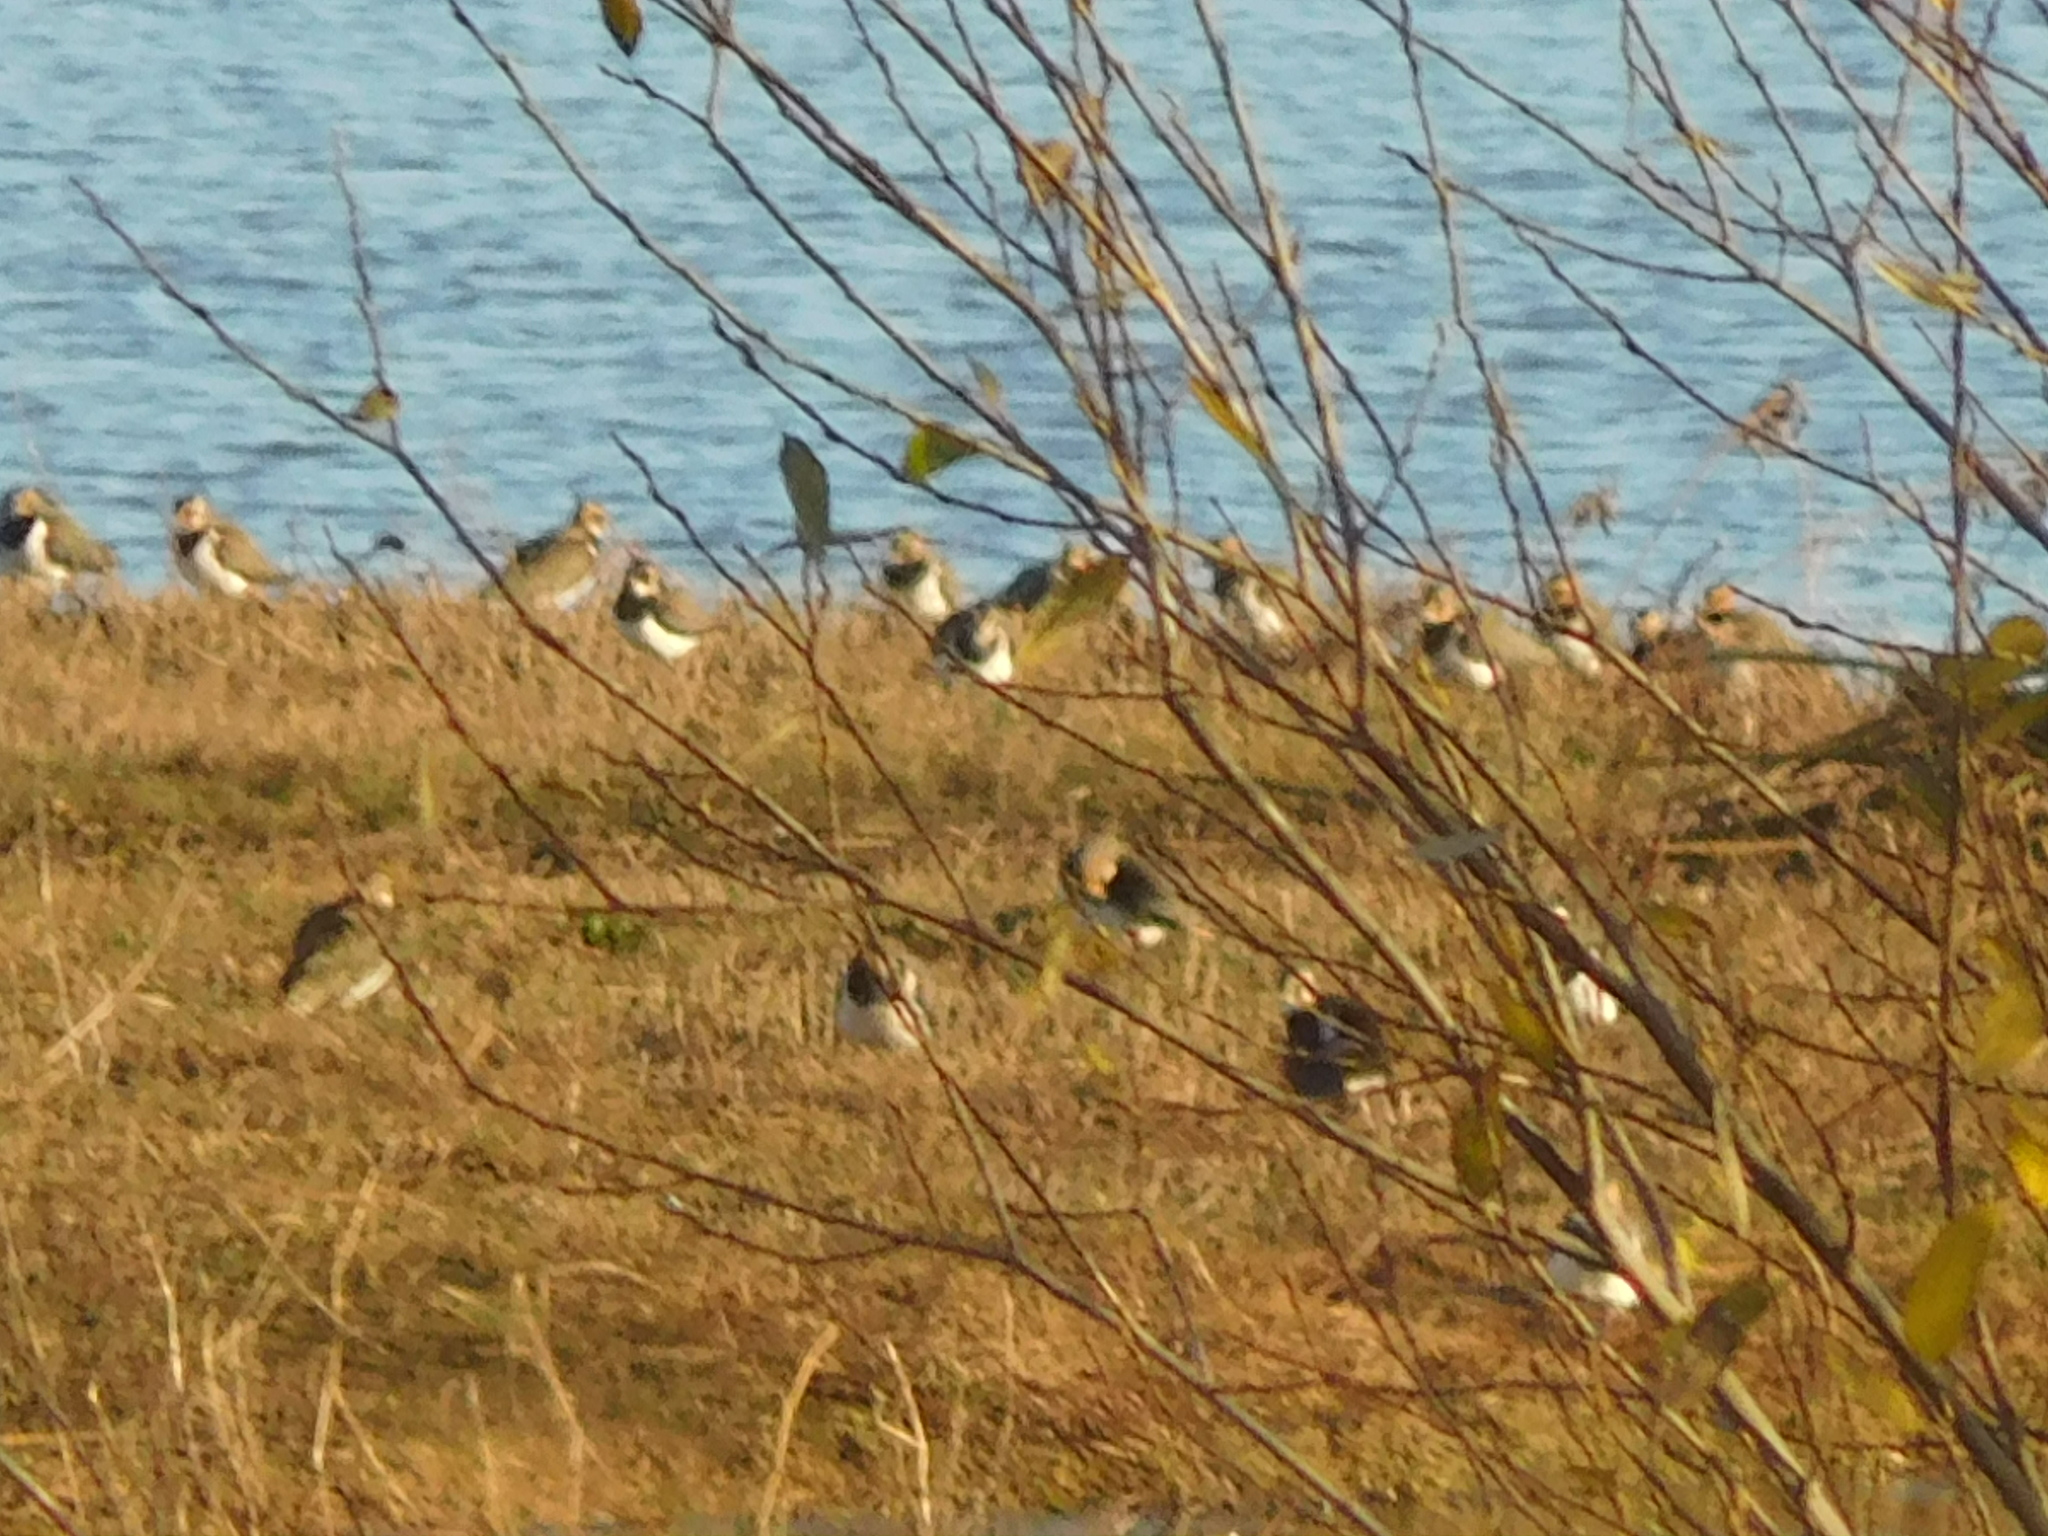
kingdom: Animalia
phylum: Chordata
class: Aves
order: Charadriiformes
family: Charadriidae
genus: Vanellus
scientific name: Vanellus vanellus
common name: Northern lapwing
